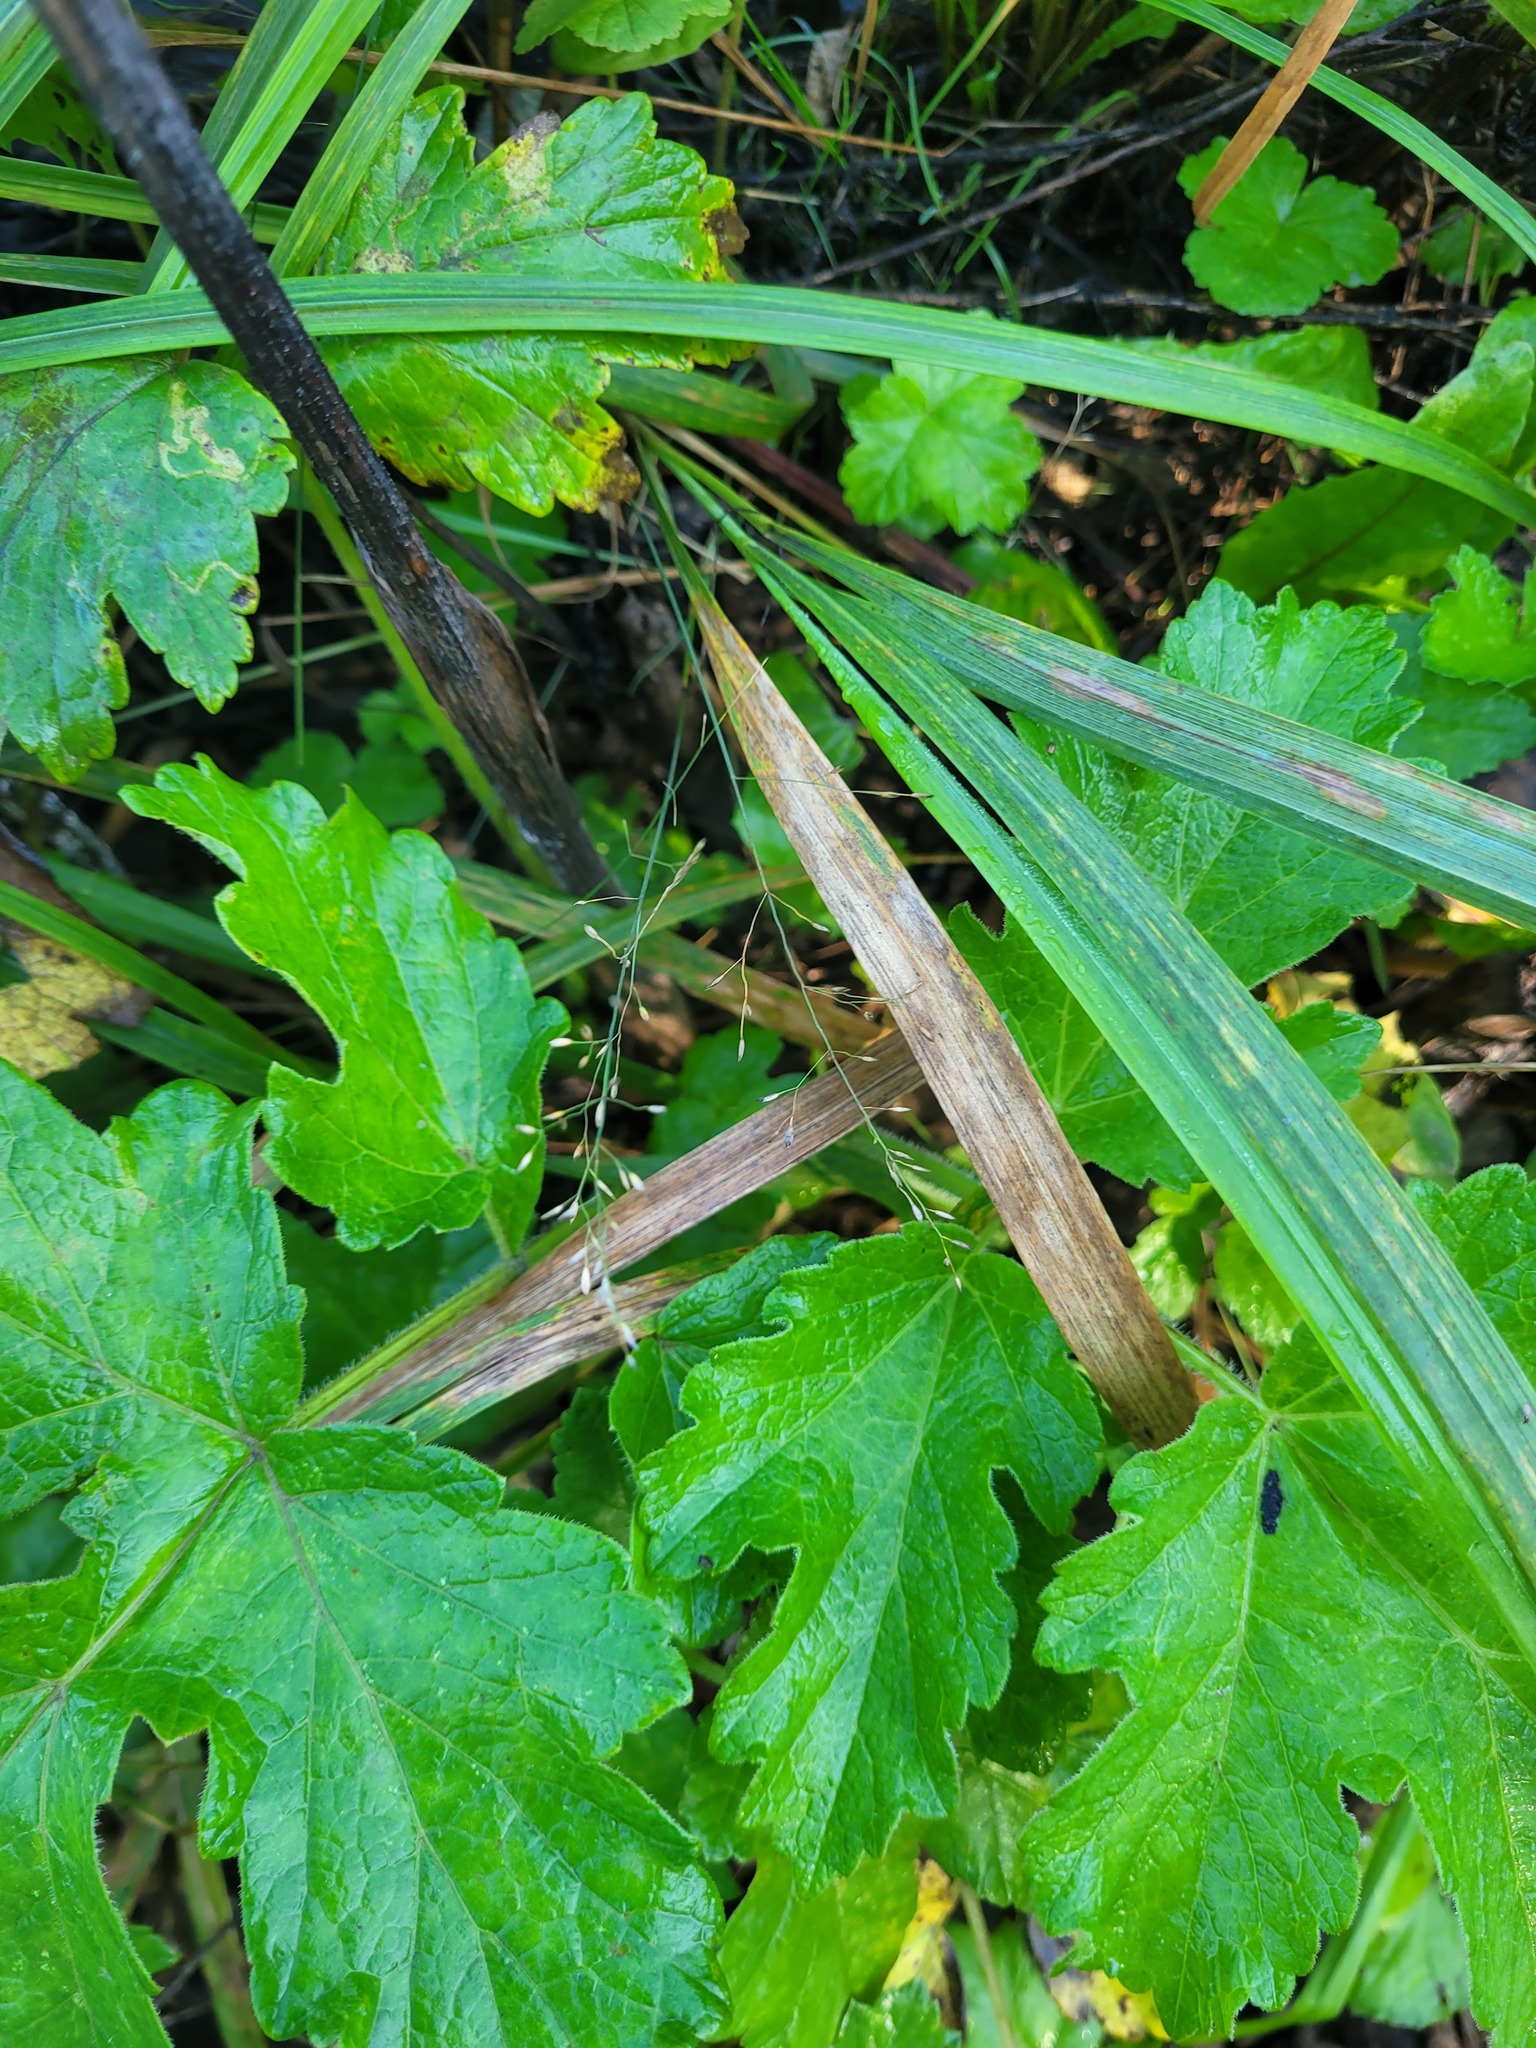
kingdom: Plantae
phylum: Tracheophyta
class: Liliopsida
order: Poales
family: Poaceae
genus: Poa
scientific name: Poa palustris
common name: Swamp meadow-grass
